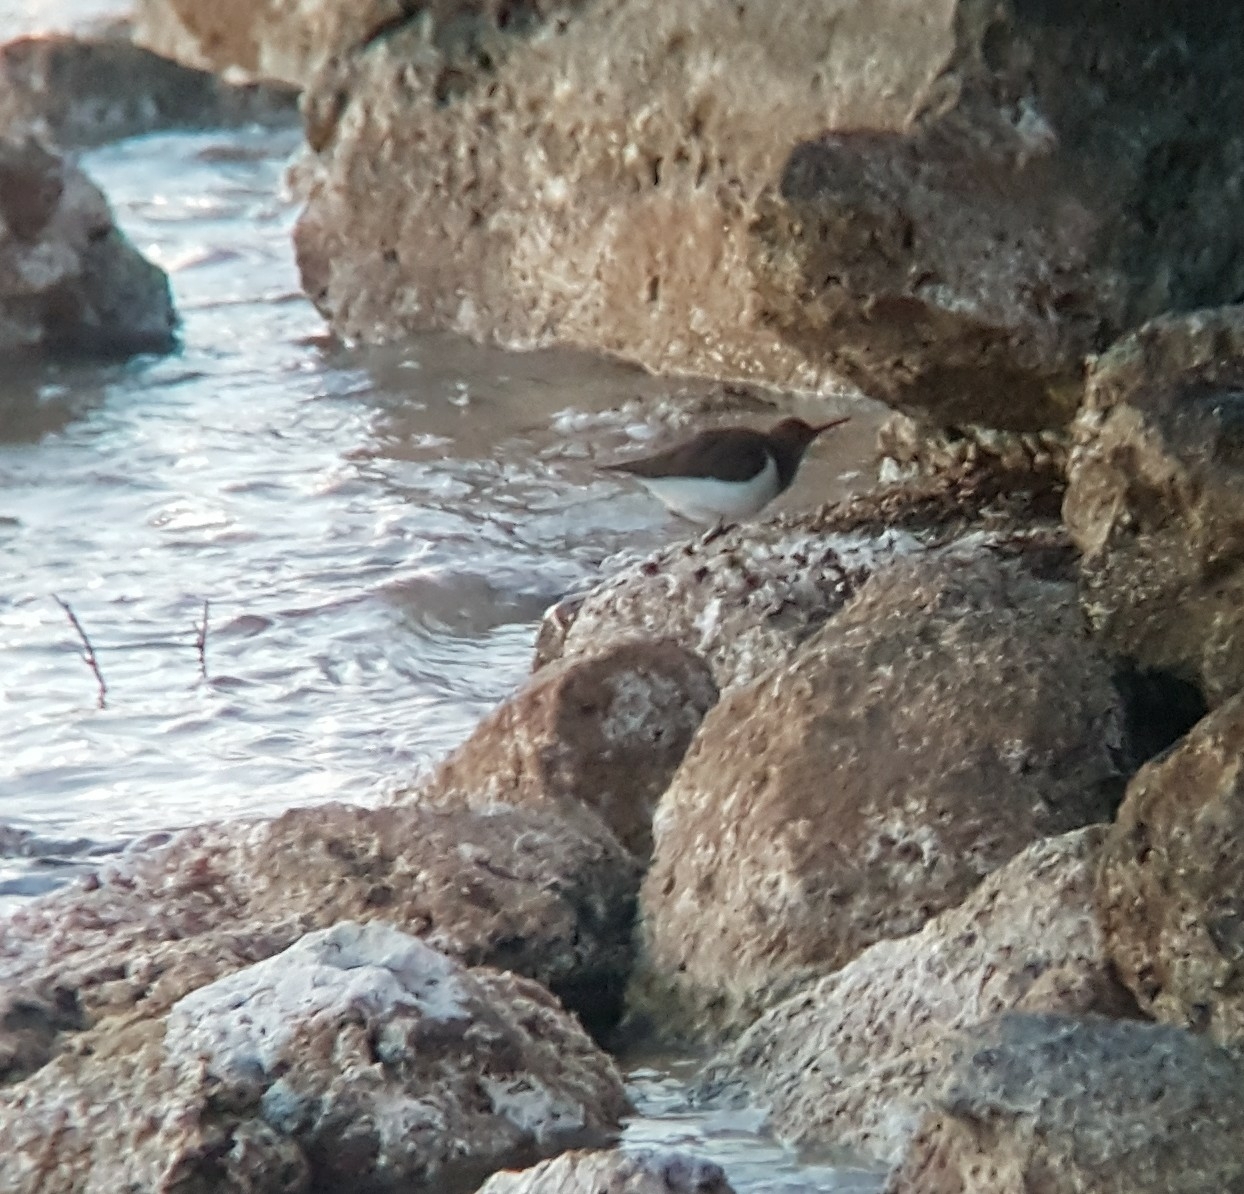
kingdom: Animalia
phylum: Chordata
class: Aves
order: Charadriiformes
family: Scolopacidae
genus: Actitis
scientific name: Actitis hypoleucos
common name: Common sandpiper
